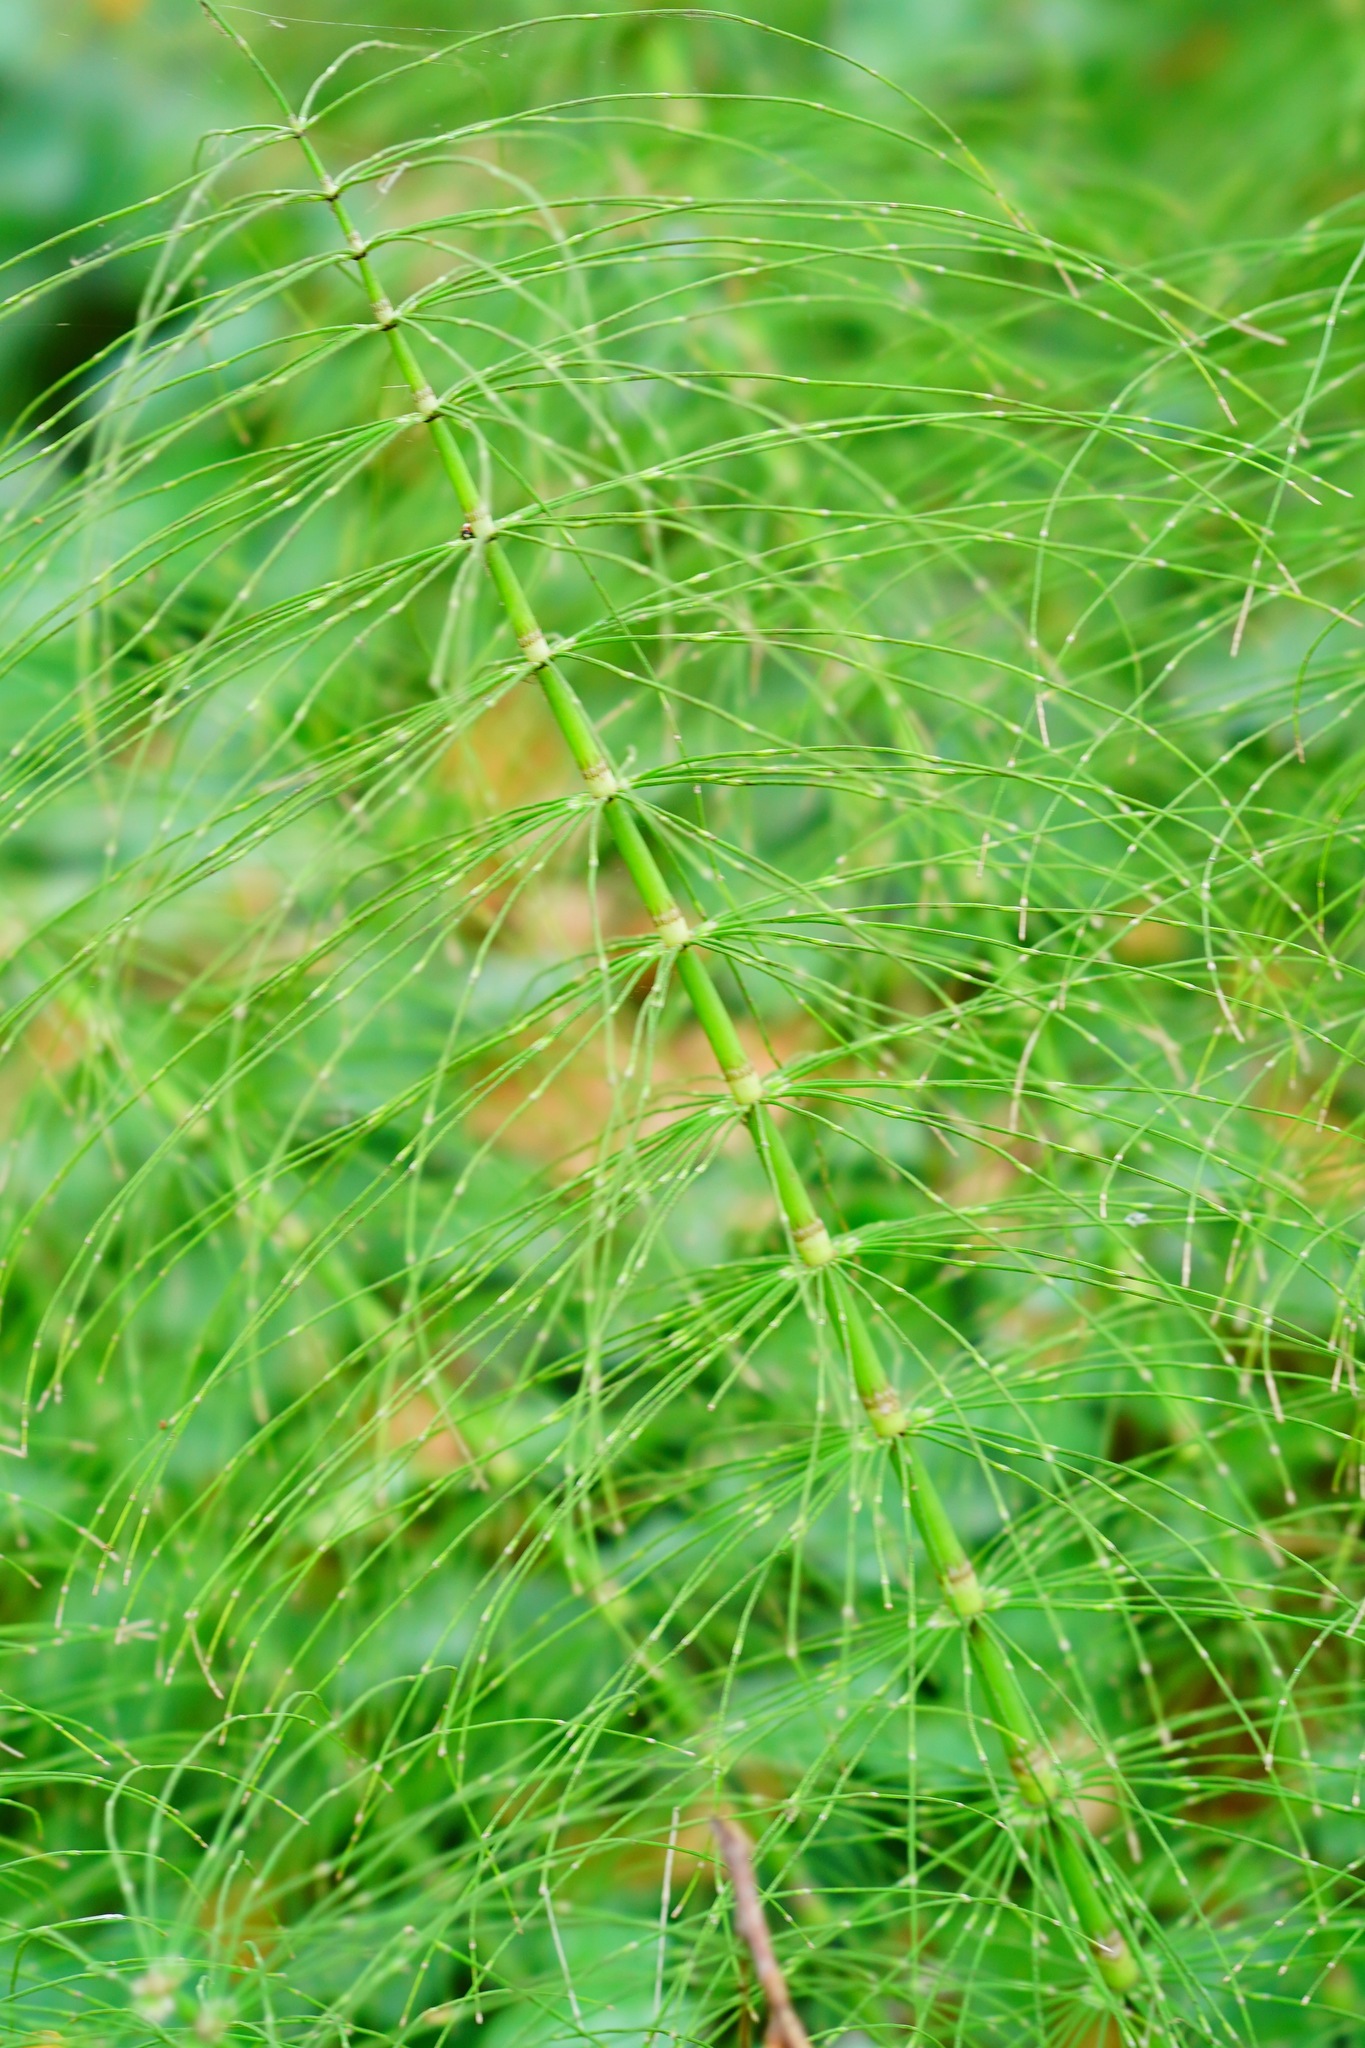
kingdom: Plantae
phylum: Tracheophyta
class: Polypodiopsida
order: Equisetales
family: Equisetaceae
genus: Equisetum
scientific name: Equisetum braunii
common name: Braun's horsetail
